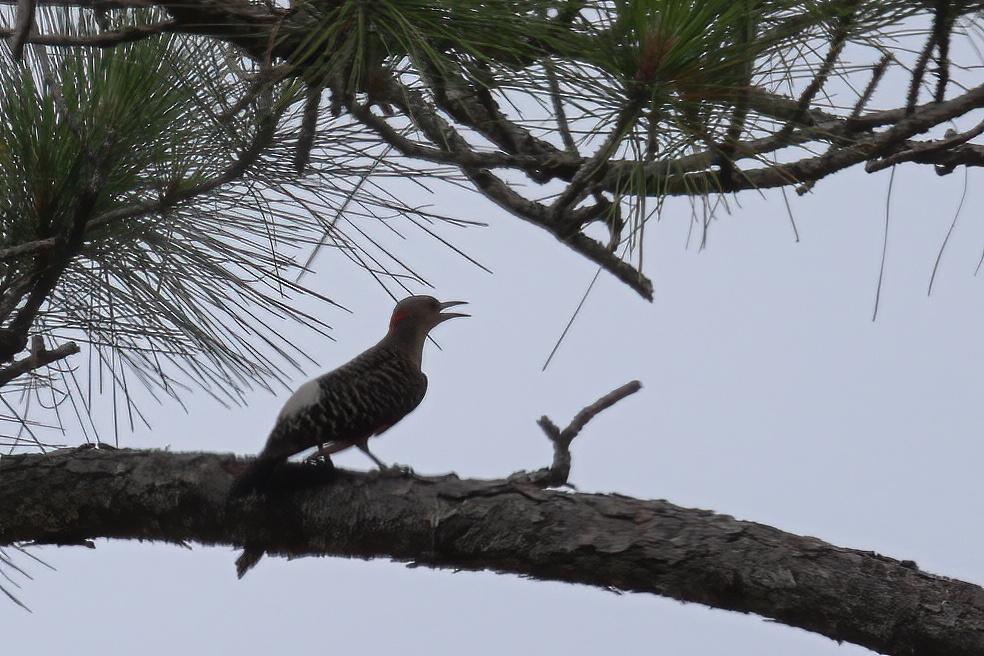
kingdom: Animalia
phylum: Chordata
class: Aves
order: Piciformes
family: Picidae
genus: Colaptes
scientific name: Colaptes auratus
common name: Northern flicker
